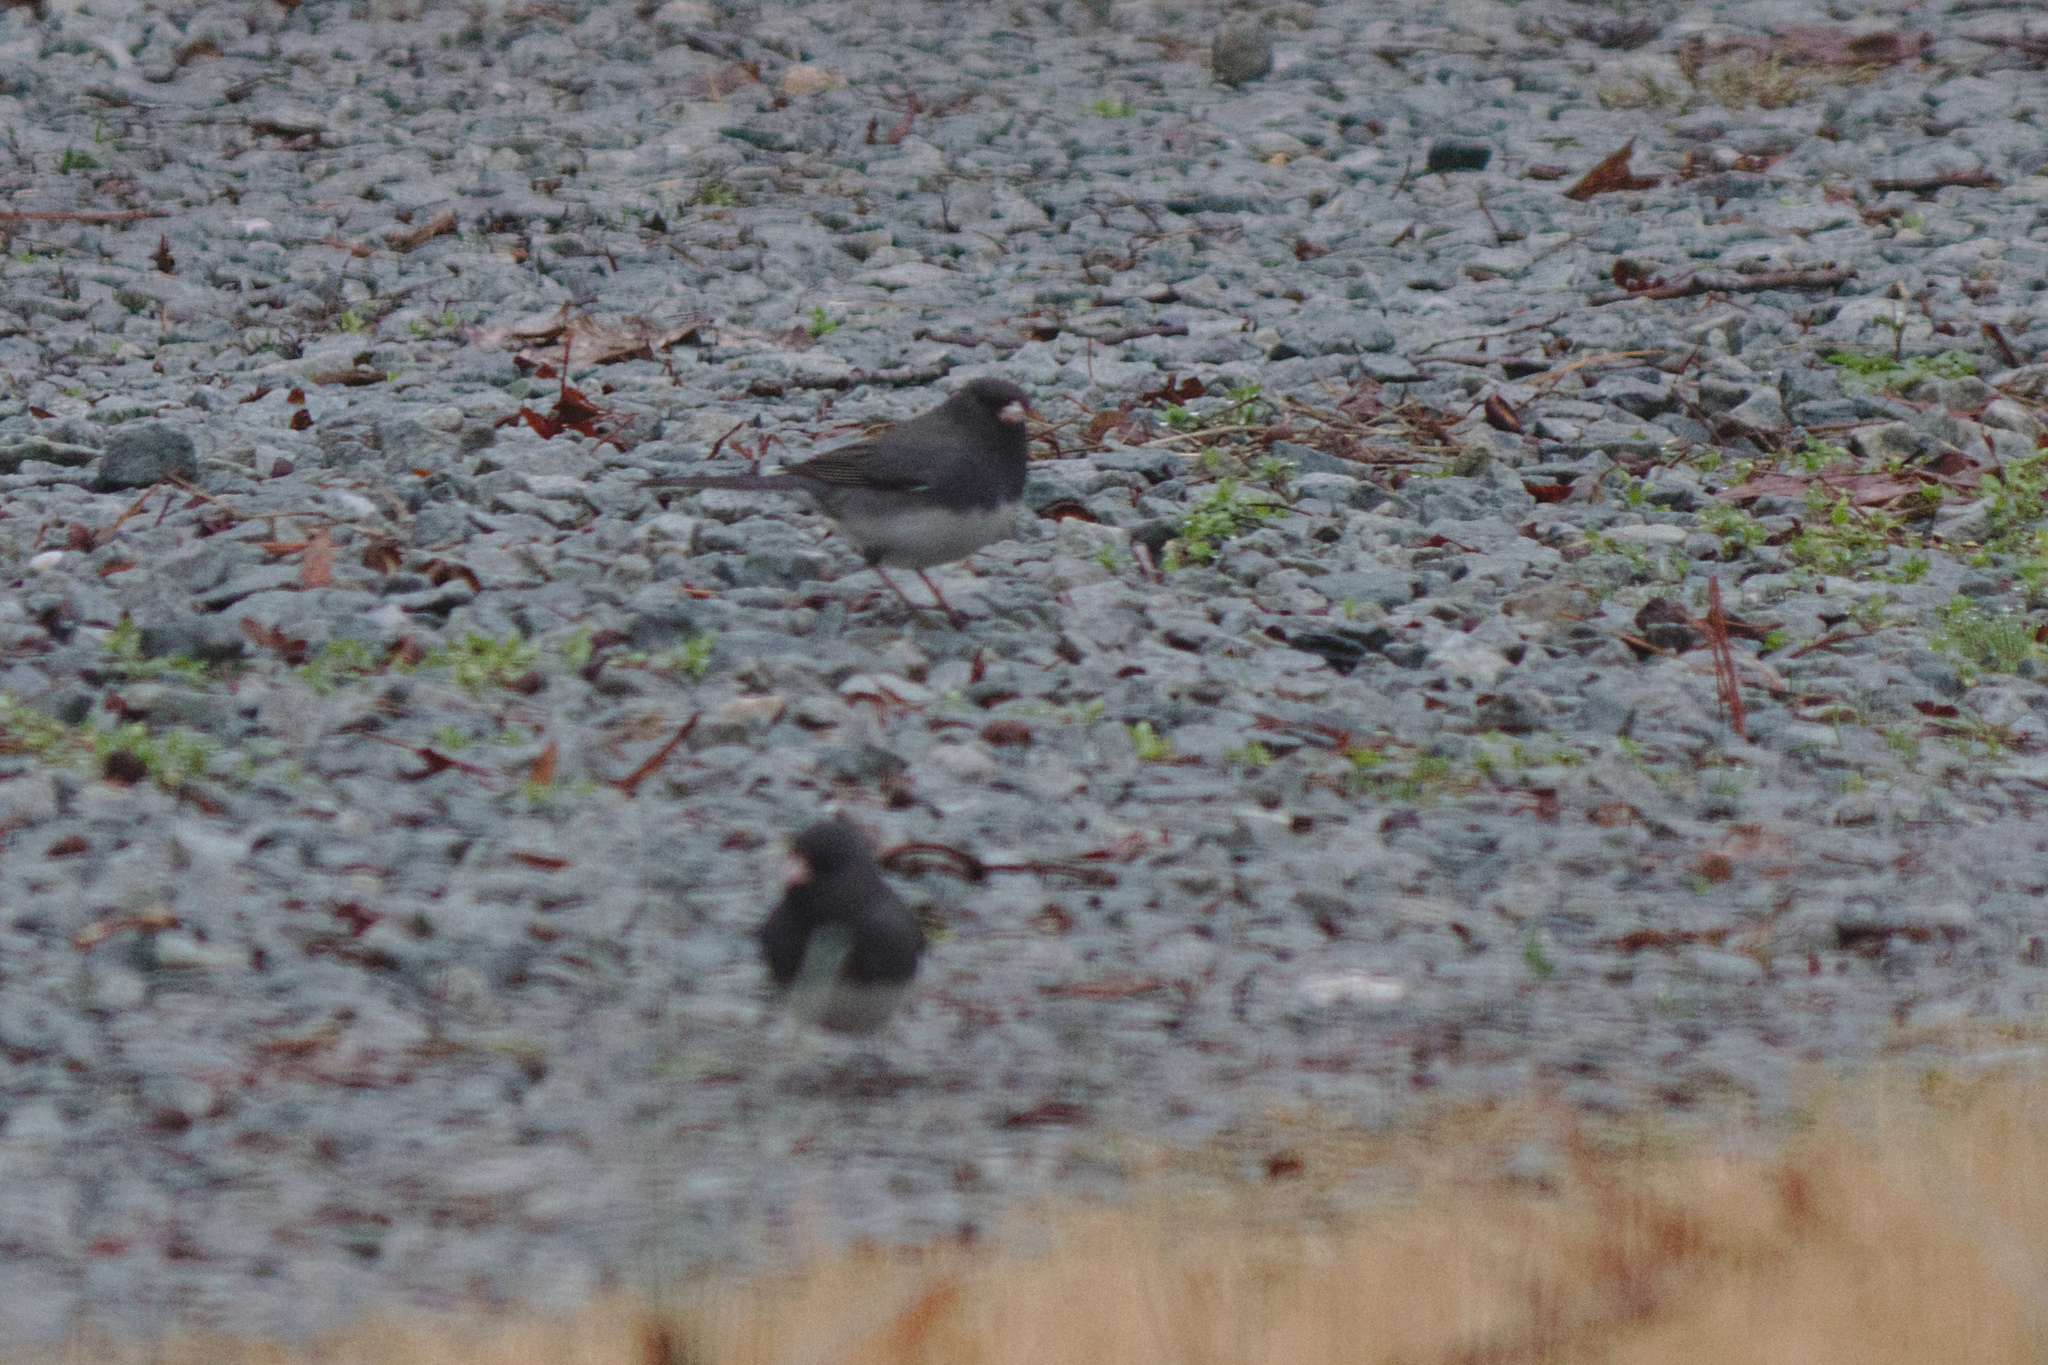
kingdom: Animalia
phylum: Chordata
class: Aves
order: Passeriformes
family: Passerellidae
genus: Junco
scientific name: Junco hyemalis
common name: Dark-eyed junco
